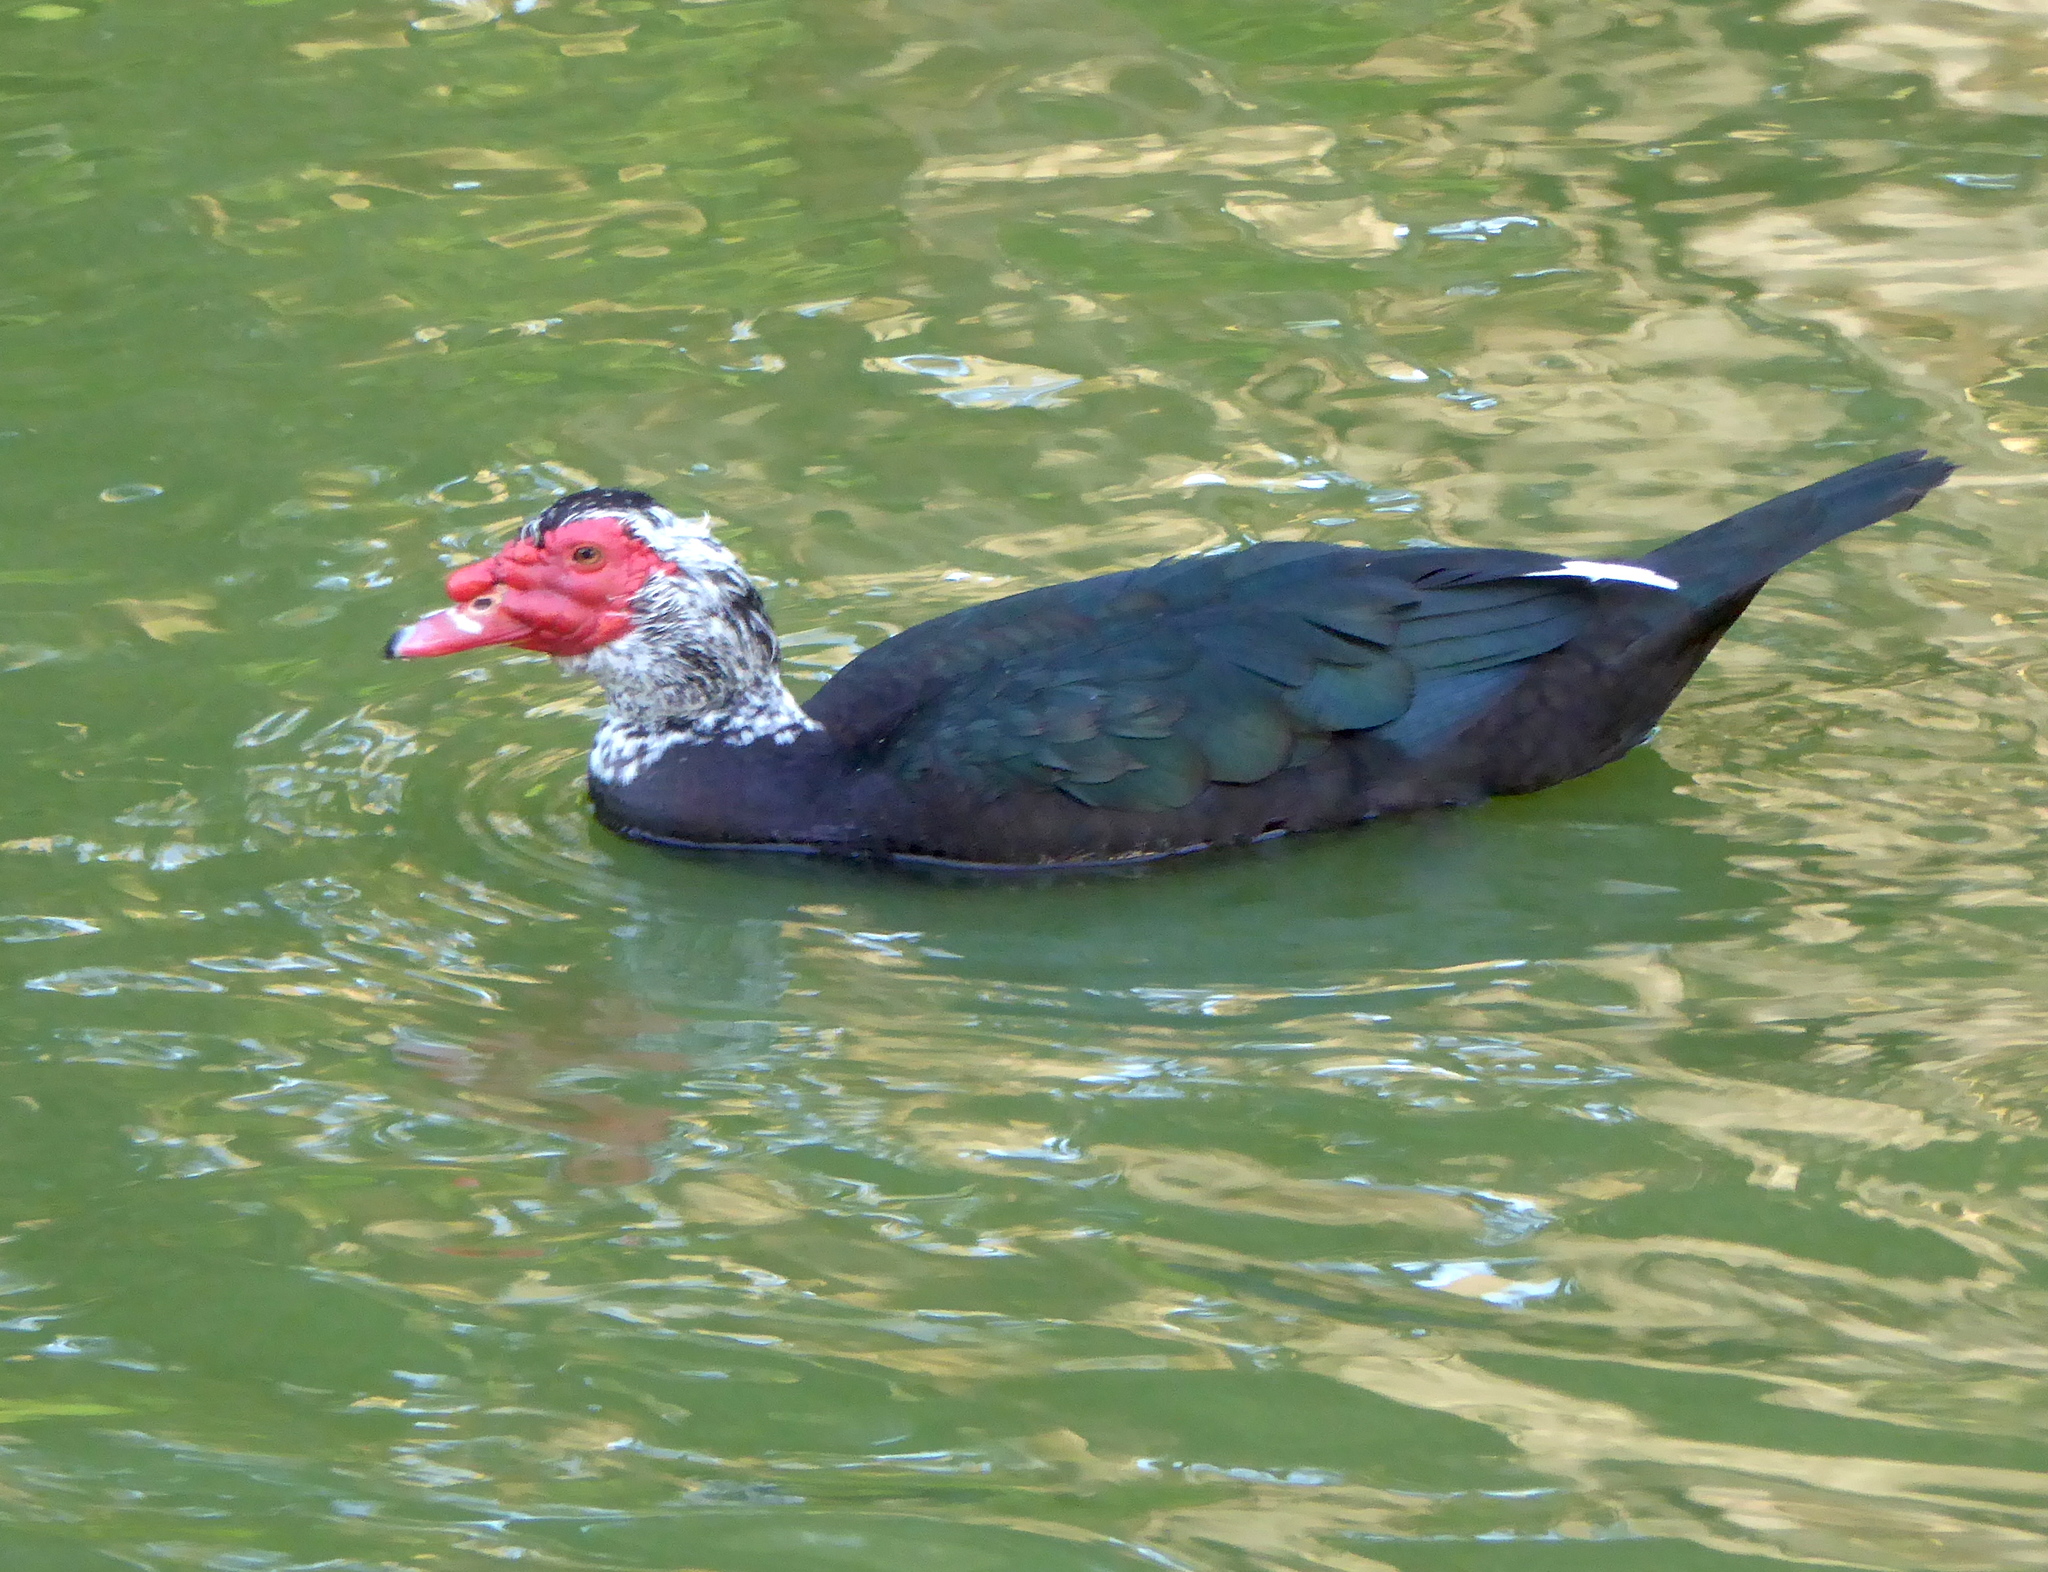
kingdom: Animalia
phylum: Chordata
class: Aves
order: Anseriformes
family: Anatidae
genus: Cairina
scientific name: Cairina moschata
